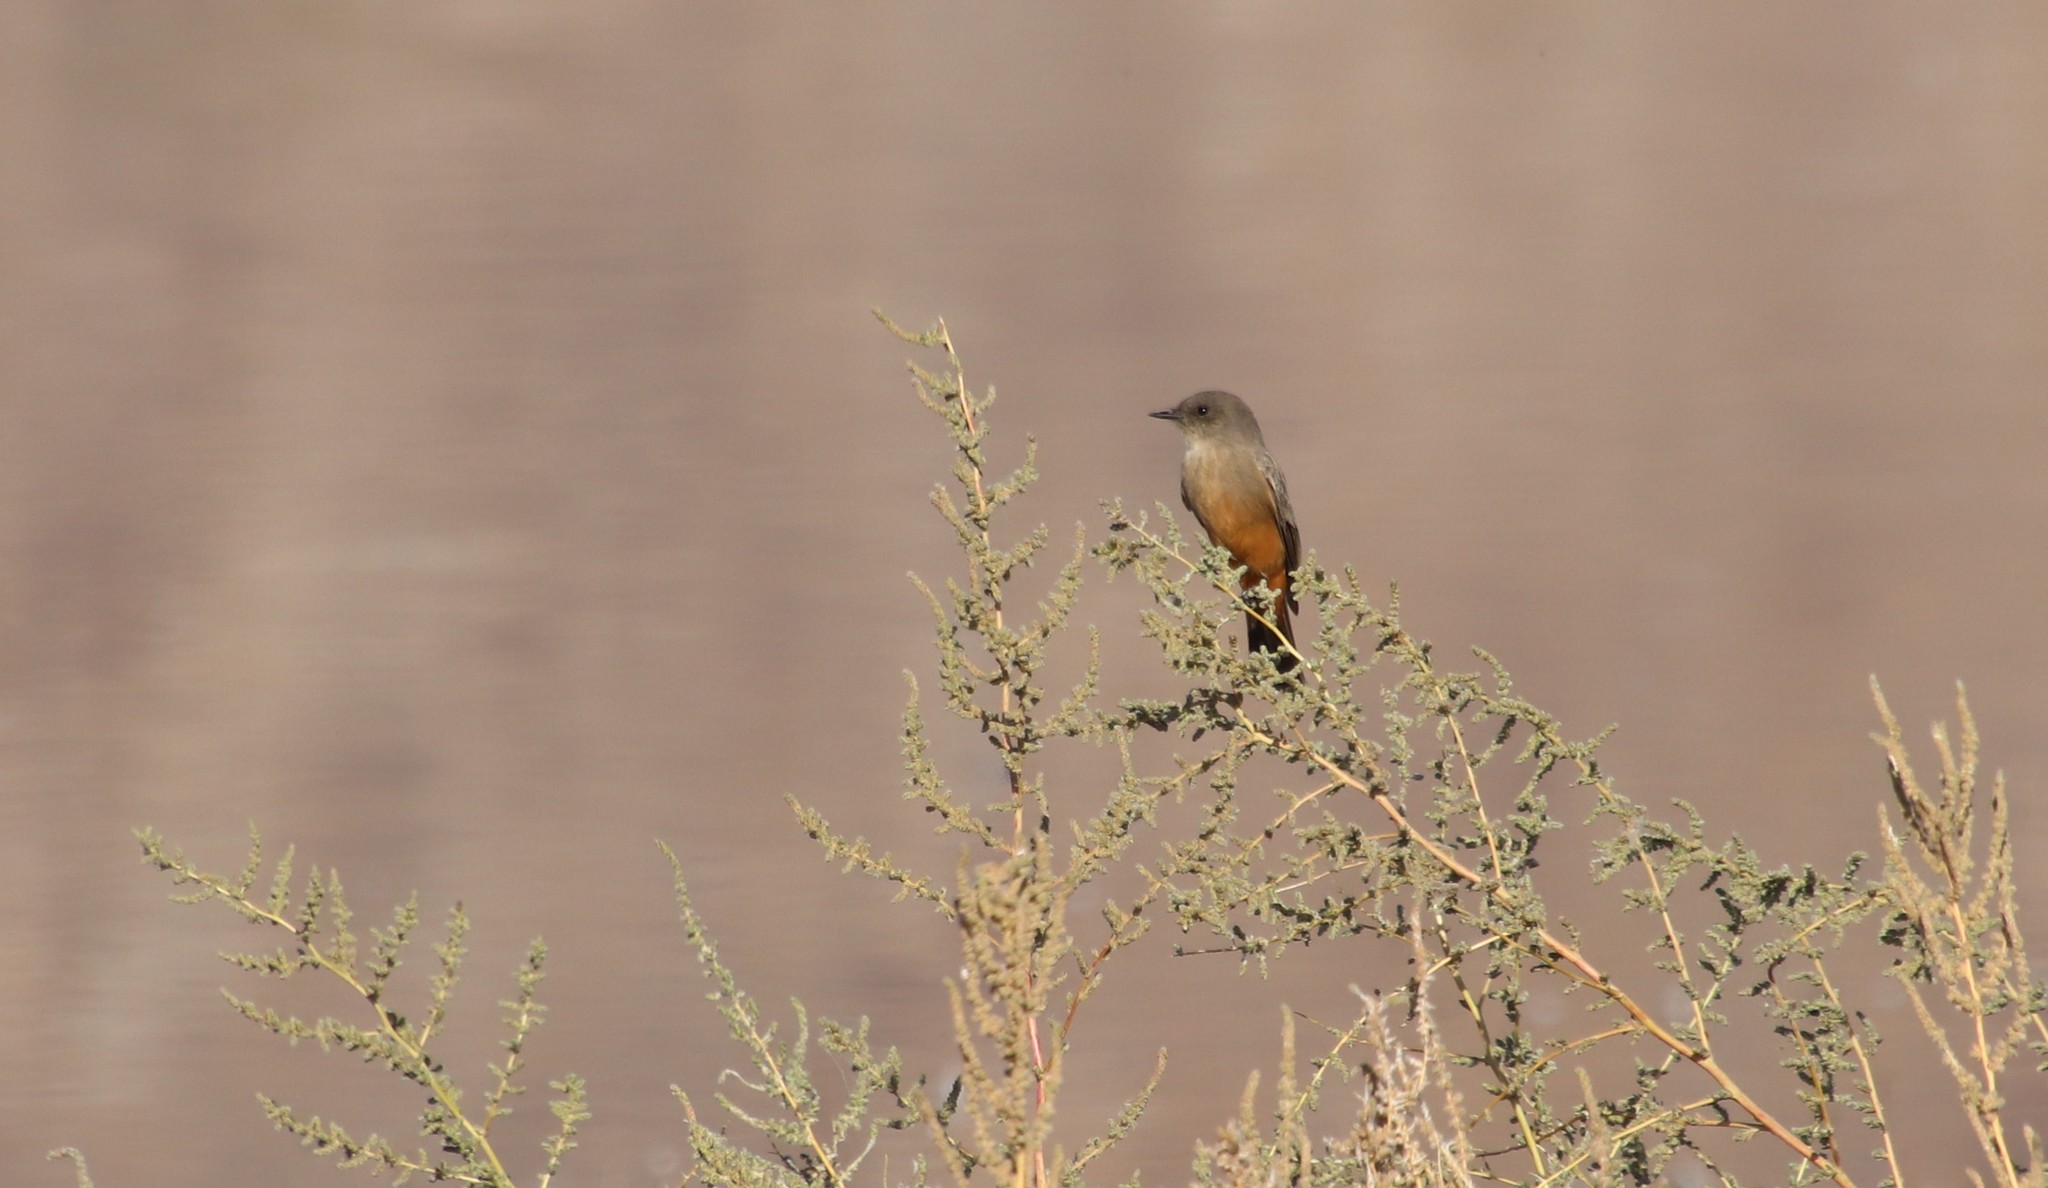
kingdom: Animalia
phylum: Chordata
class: Aves
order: Passeriformes
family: Tyrannidae
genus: Sayornis
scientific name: Sayornis saya
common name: Say's phoebe
